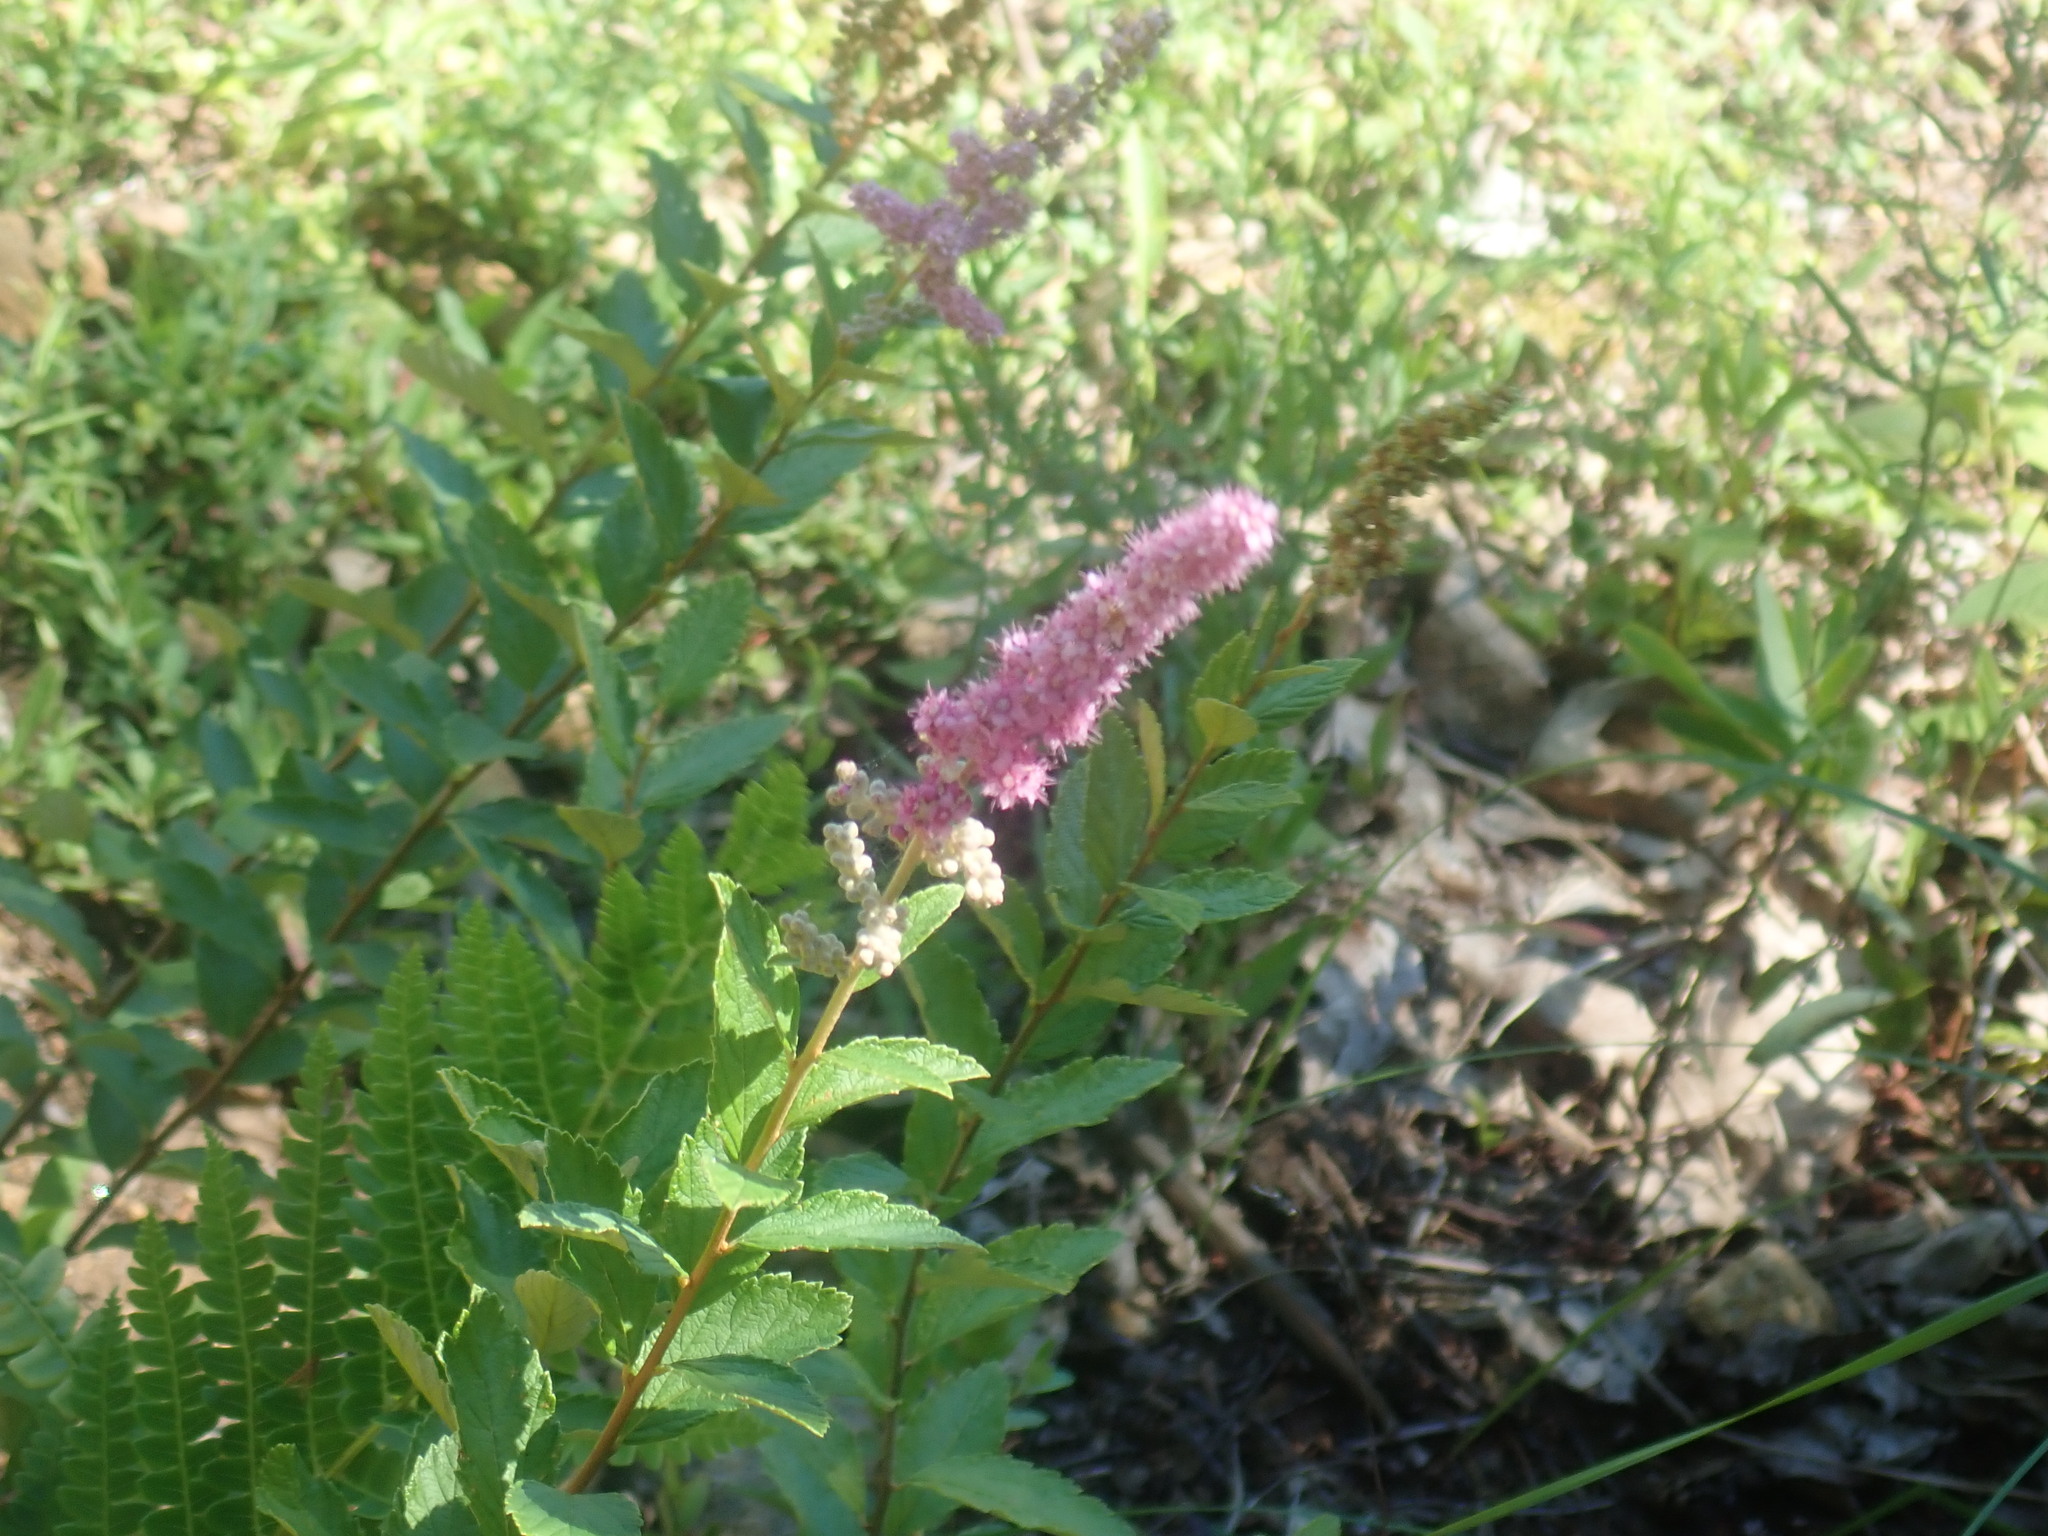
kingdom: Plantae
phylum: Tracheophyta
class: Magnoliopsida
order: Rosales
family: Rosaceae
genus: Spiraea
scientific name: Spiraea tomentosa
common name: Hardhack
